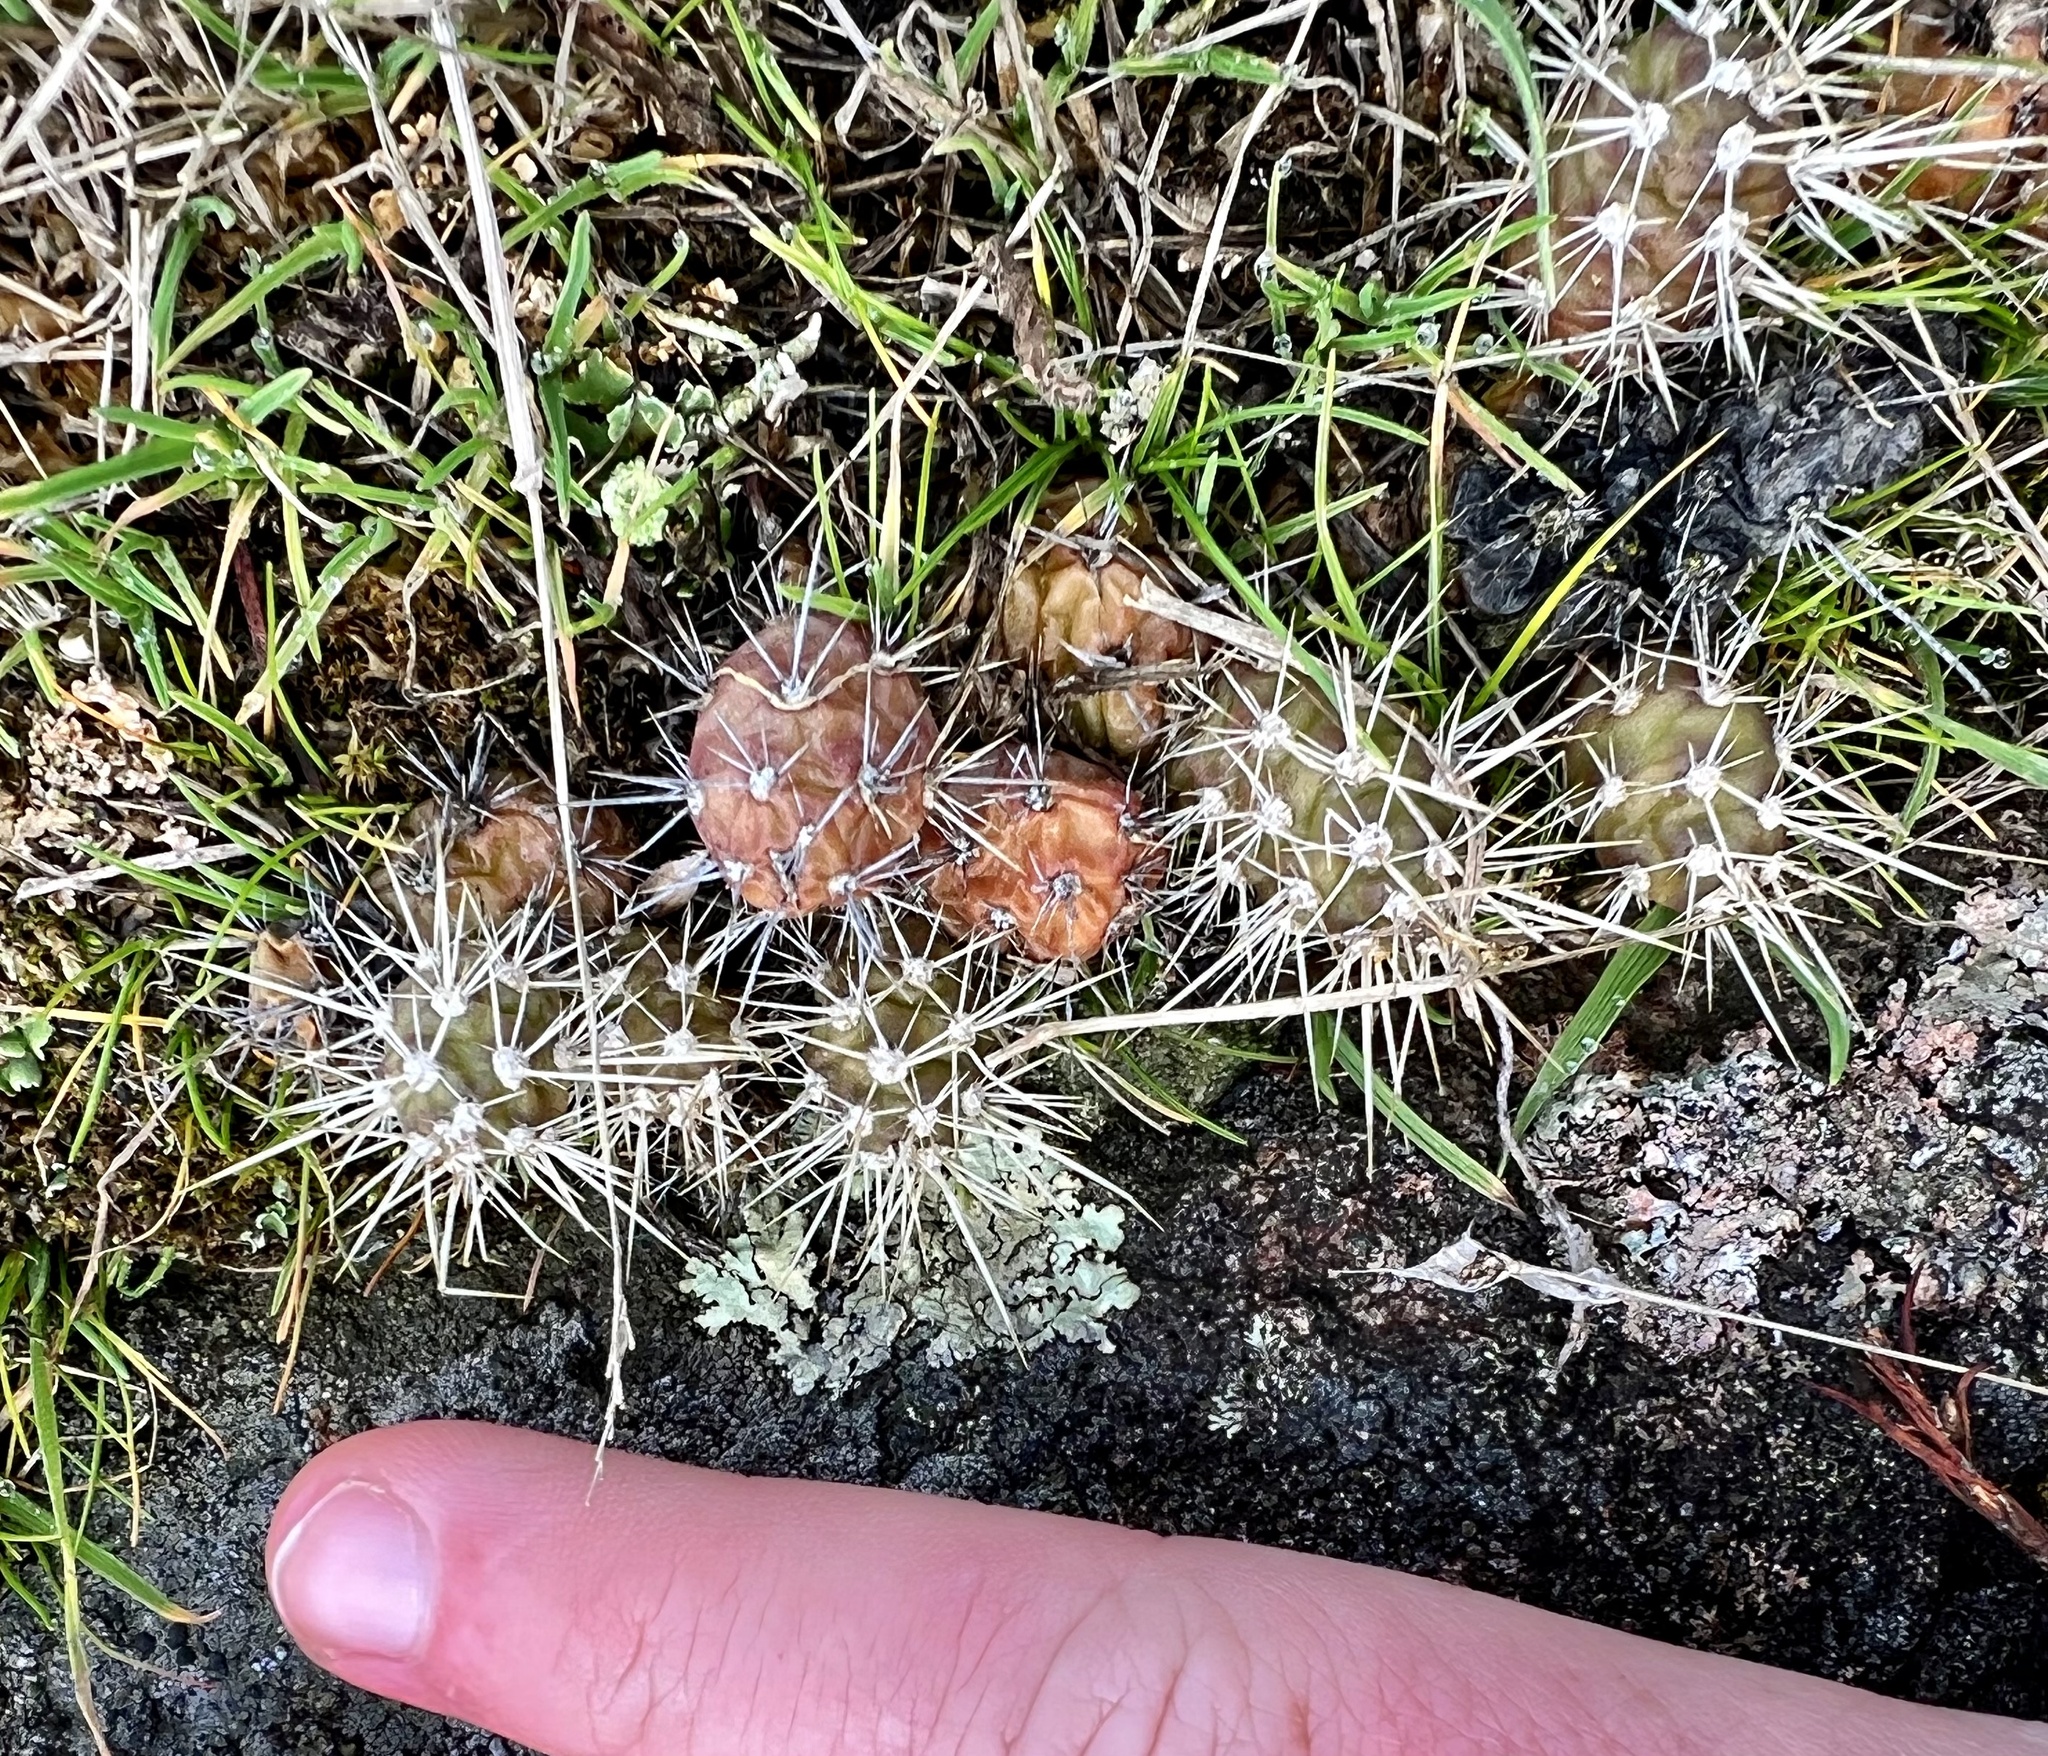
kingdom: Plantae
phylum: Tracheophyta
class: Magnoliopsida
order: Caryophyllales
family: Cactaceae
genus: Opuntia
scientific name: Opuntia fragilis
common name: Brittle cactus
